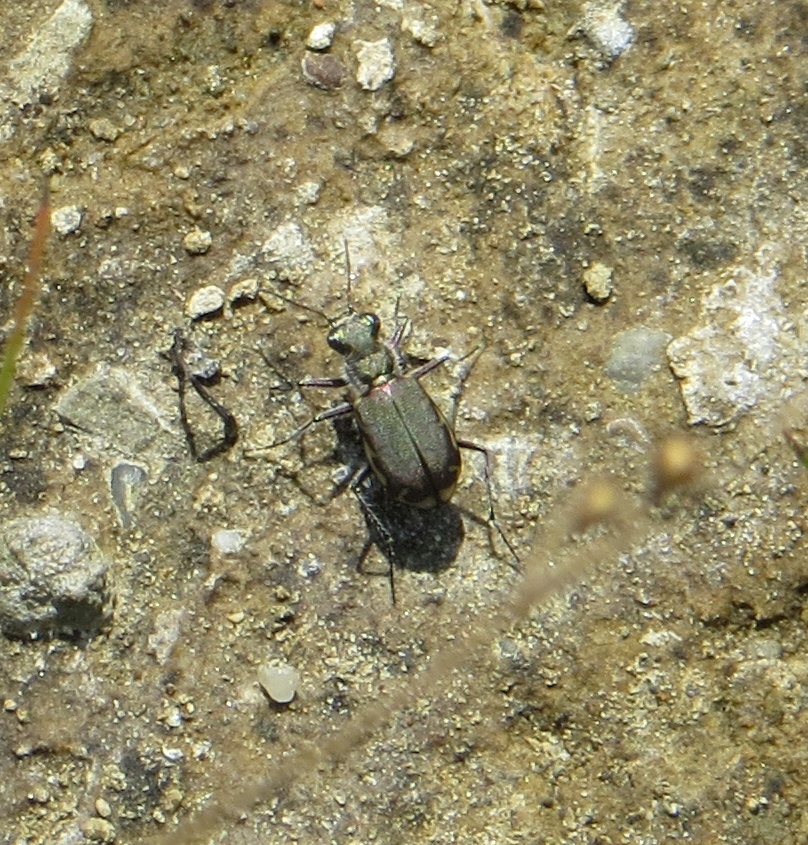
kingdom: Animalia
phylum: Arthropoda
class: Insecta
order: Coleoptera
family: Carabidae
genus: Cicindela
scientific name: Cicindela repanda
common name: Bronzed tiger beetle
